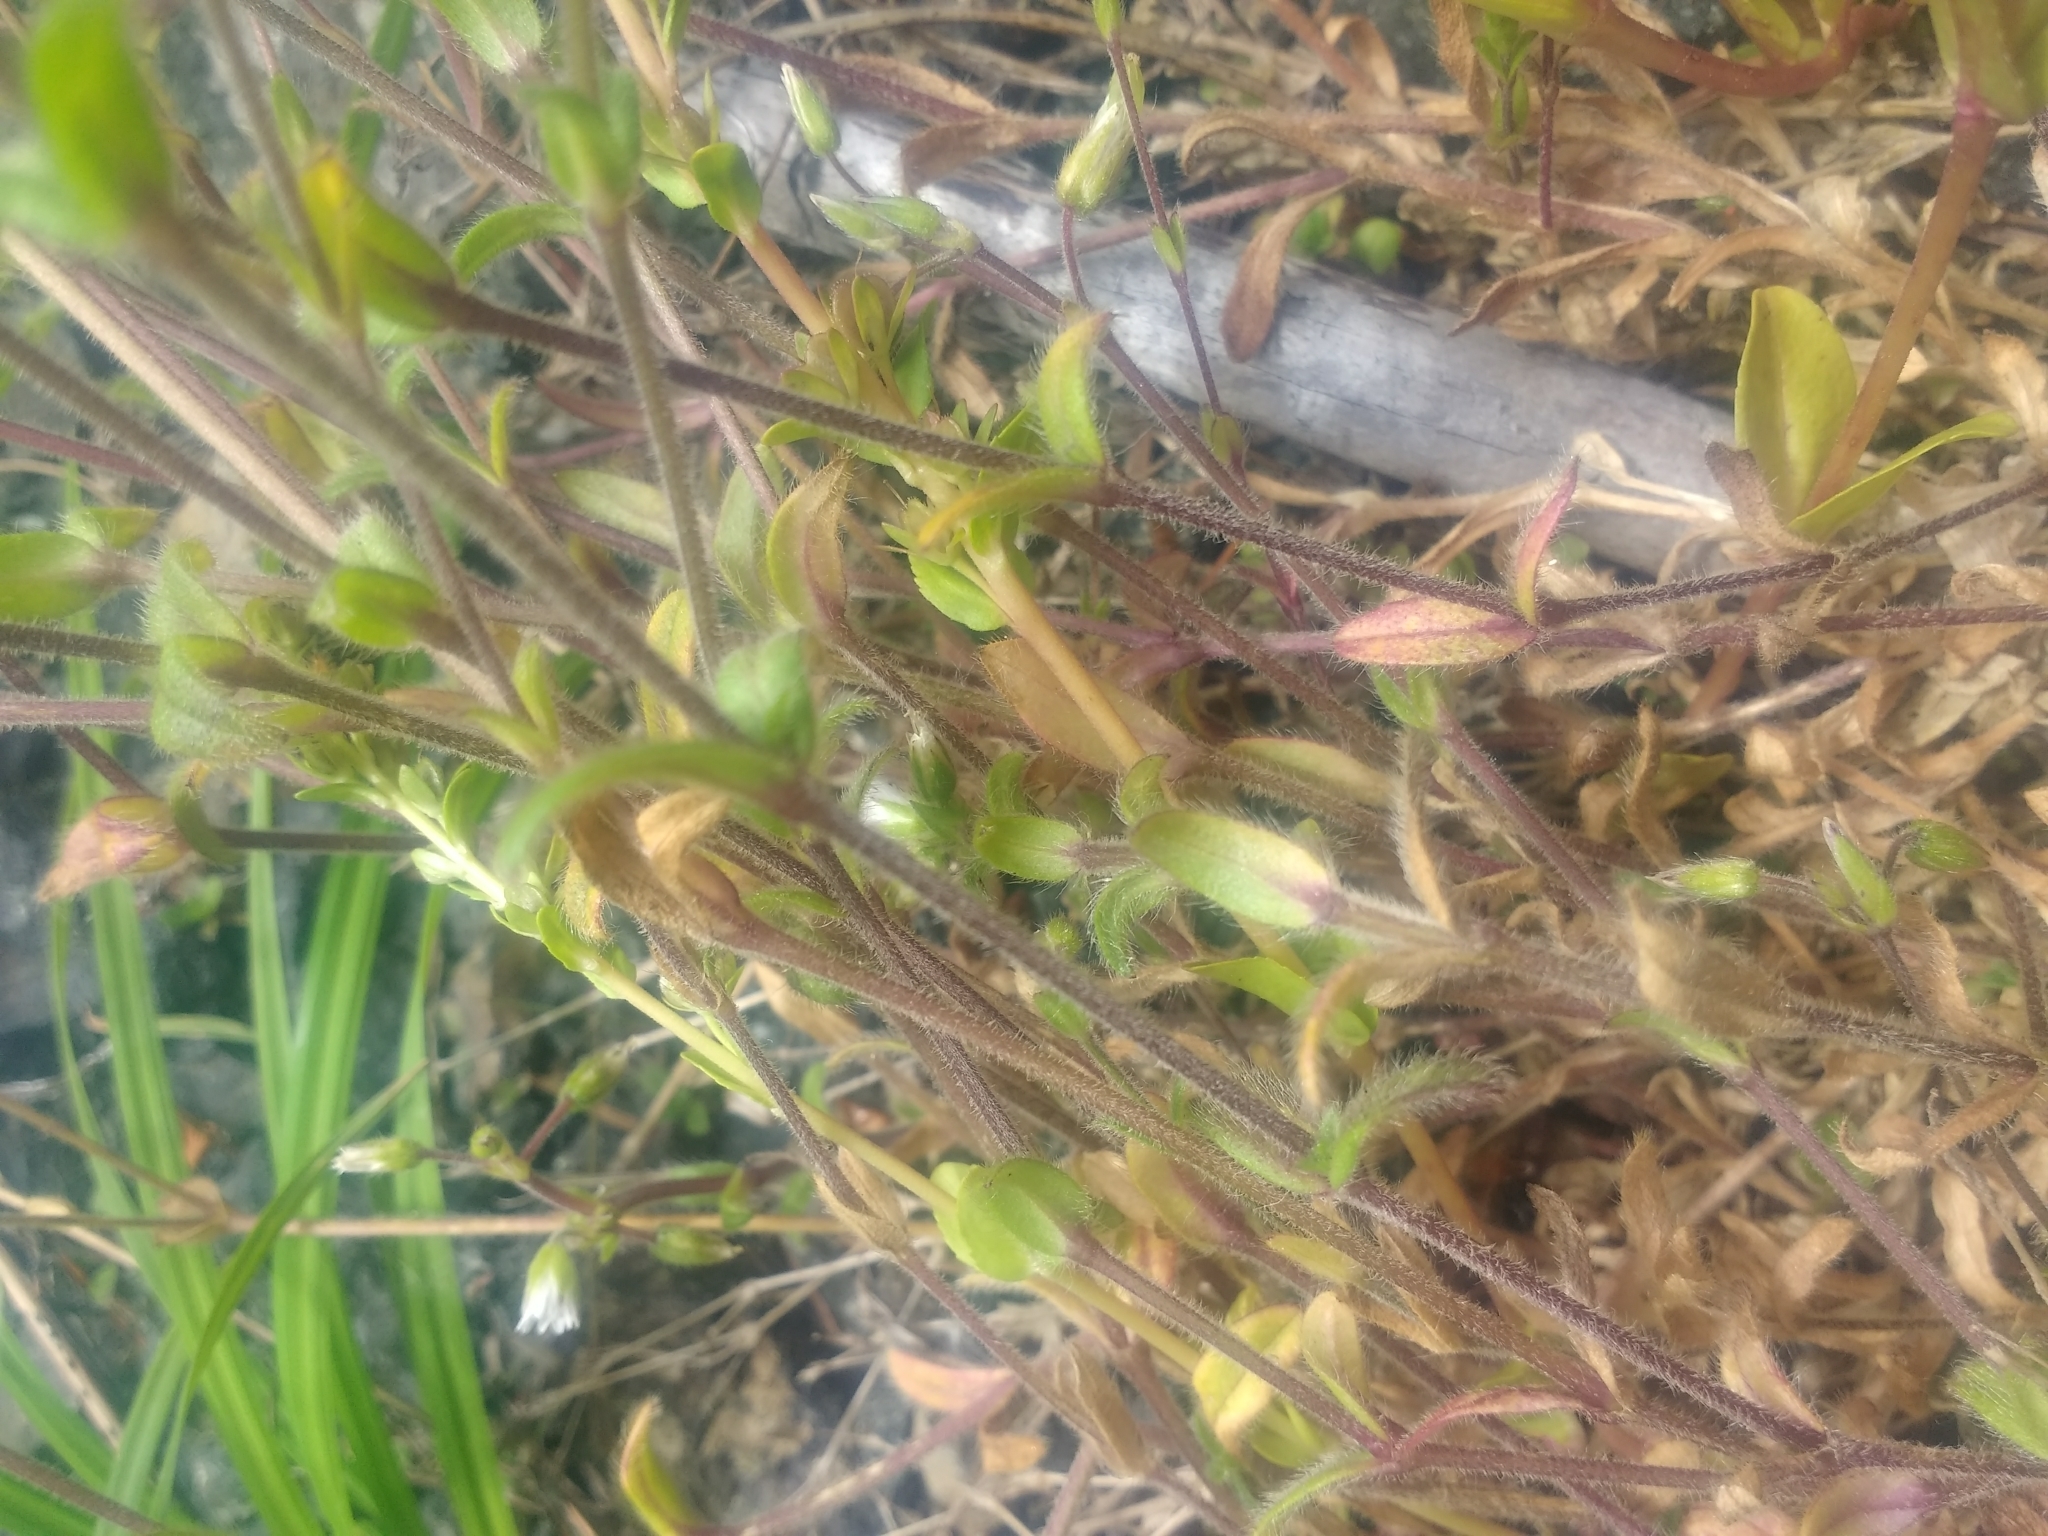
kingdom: Plantae
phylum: Tracheophyta
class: Magnoliopsida
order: Caryophyllales
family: Caryophyllaceae
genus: Cerastium
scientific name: Cerastium fontanum
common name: Common mouse-ear
